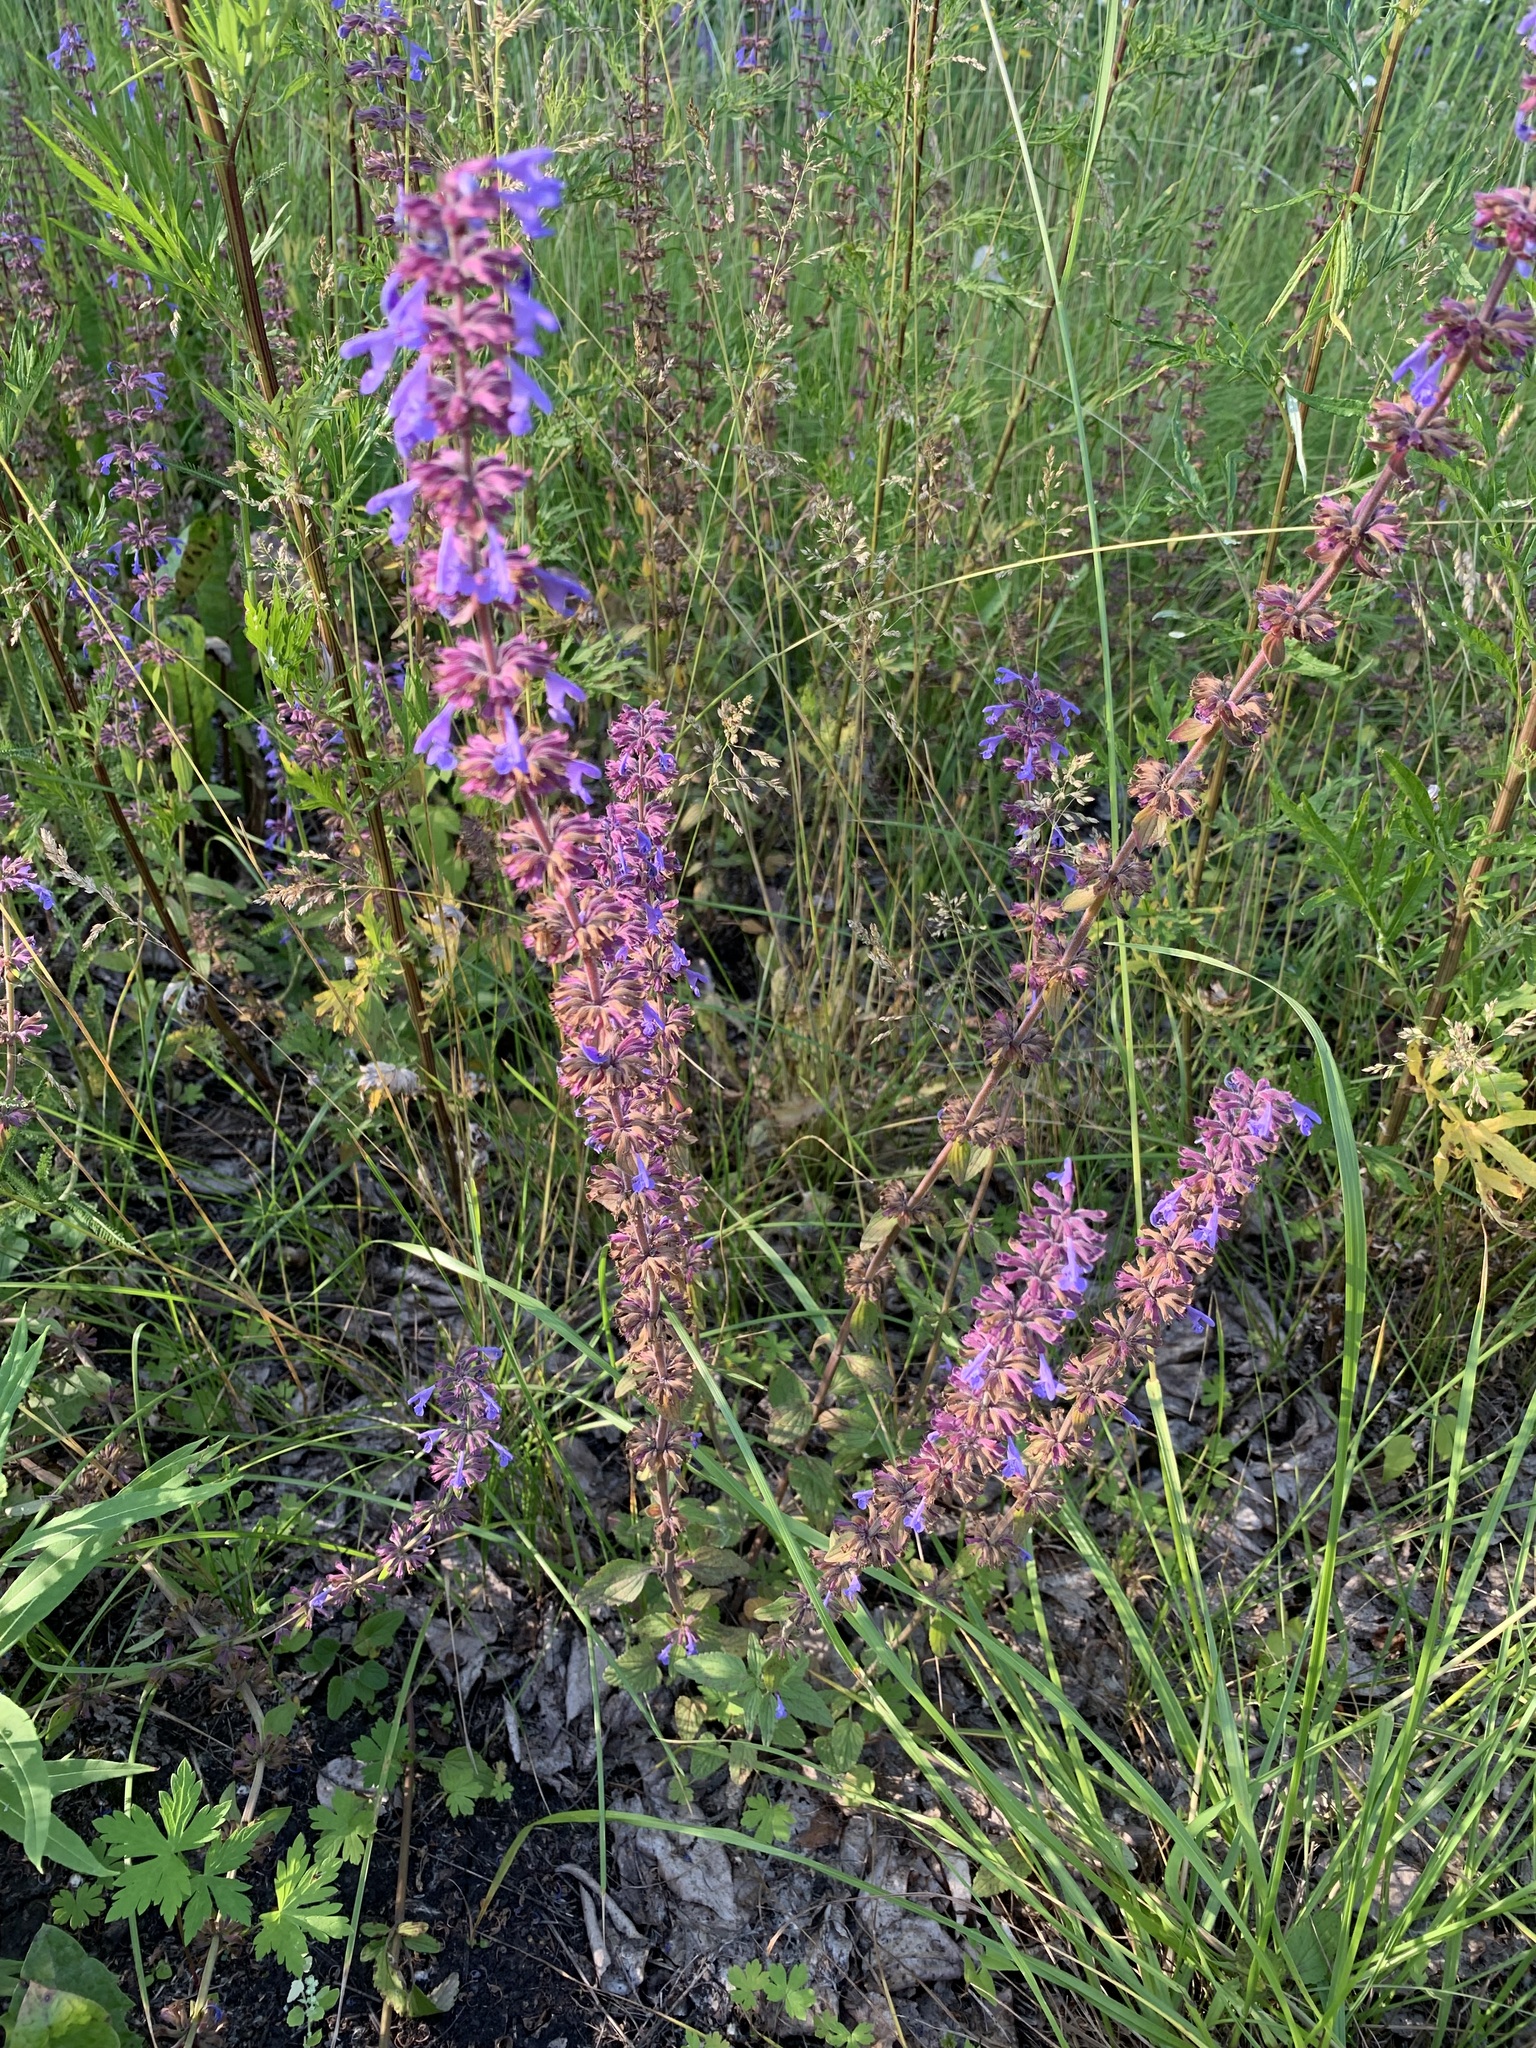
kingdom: Plantae
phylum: Tracheophyta
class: Magnoliopsida
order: Lamiales
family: Lamiaceae
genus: Dracocephalum
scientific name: Dracocephalum nutans
